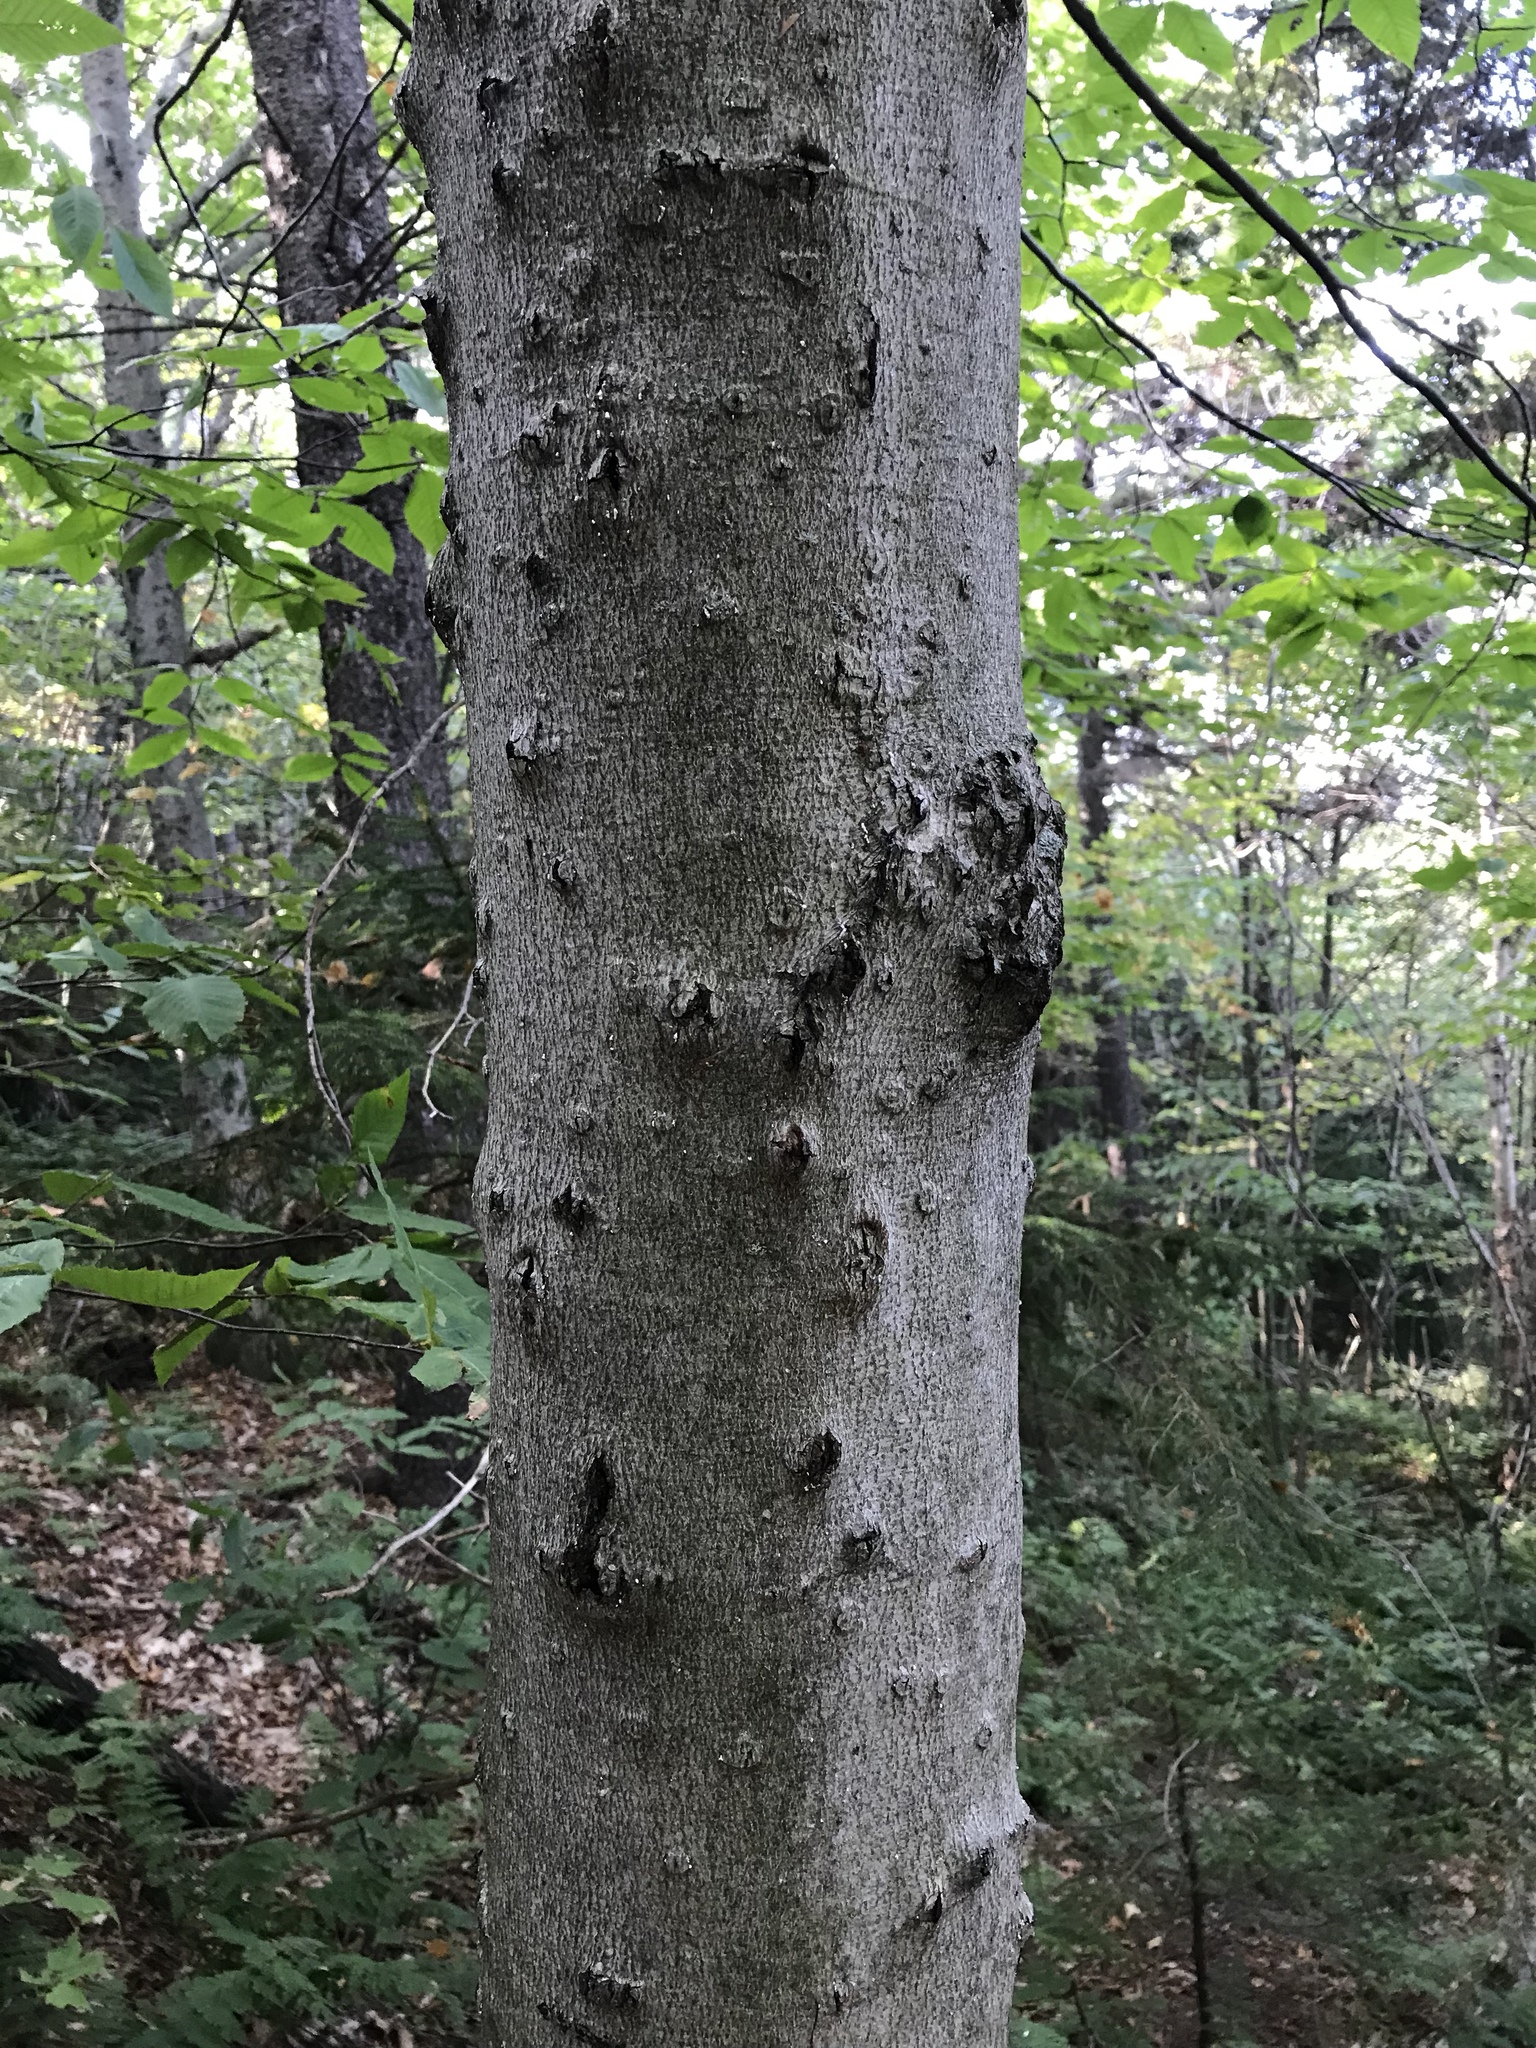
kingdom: Plantae
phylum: Tracheophyta
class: Magnoliopsida
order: Fagales
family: Fagaceae
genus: Fagus
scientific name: Fagus grandifolia
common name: American beech
